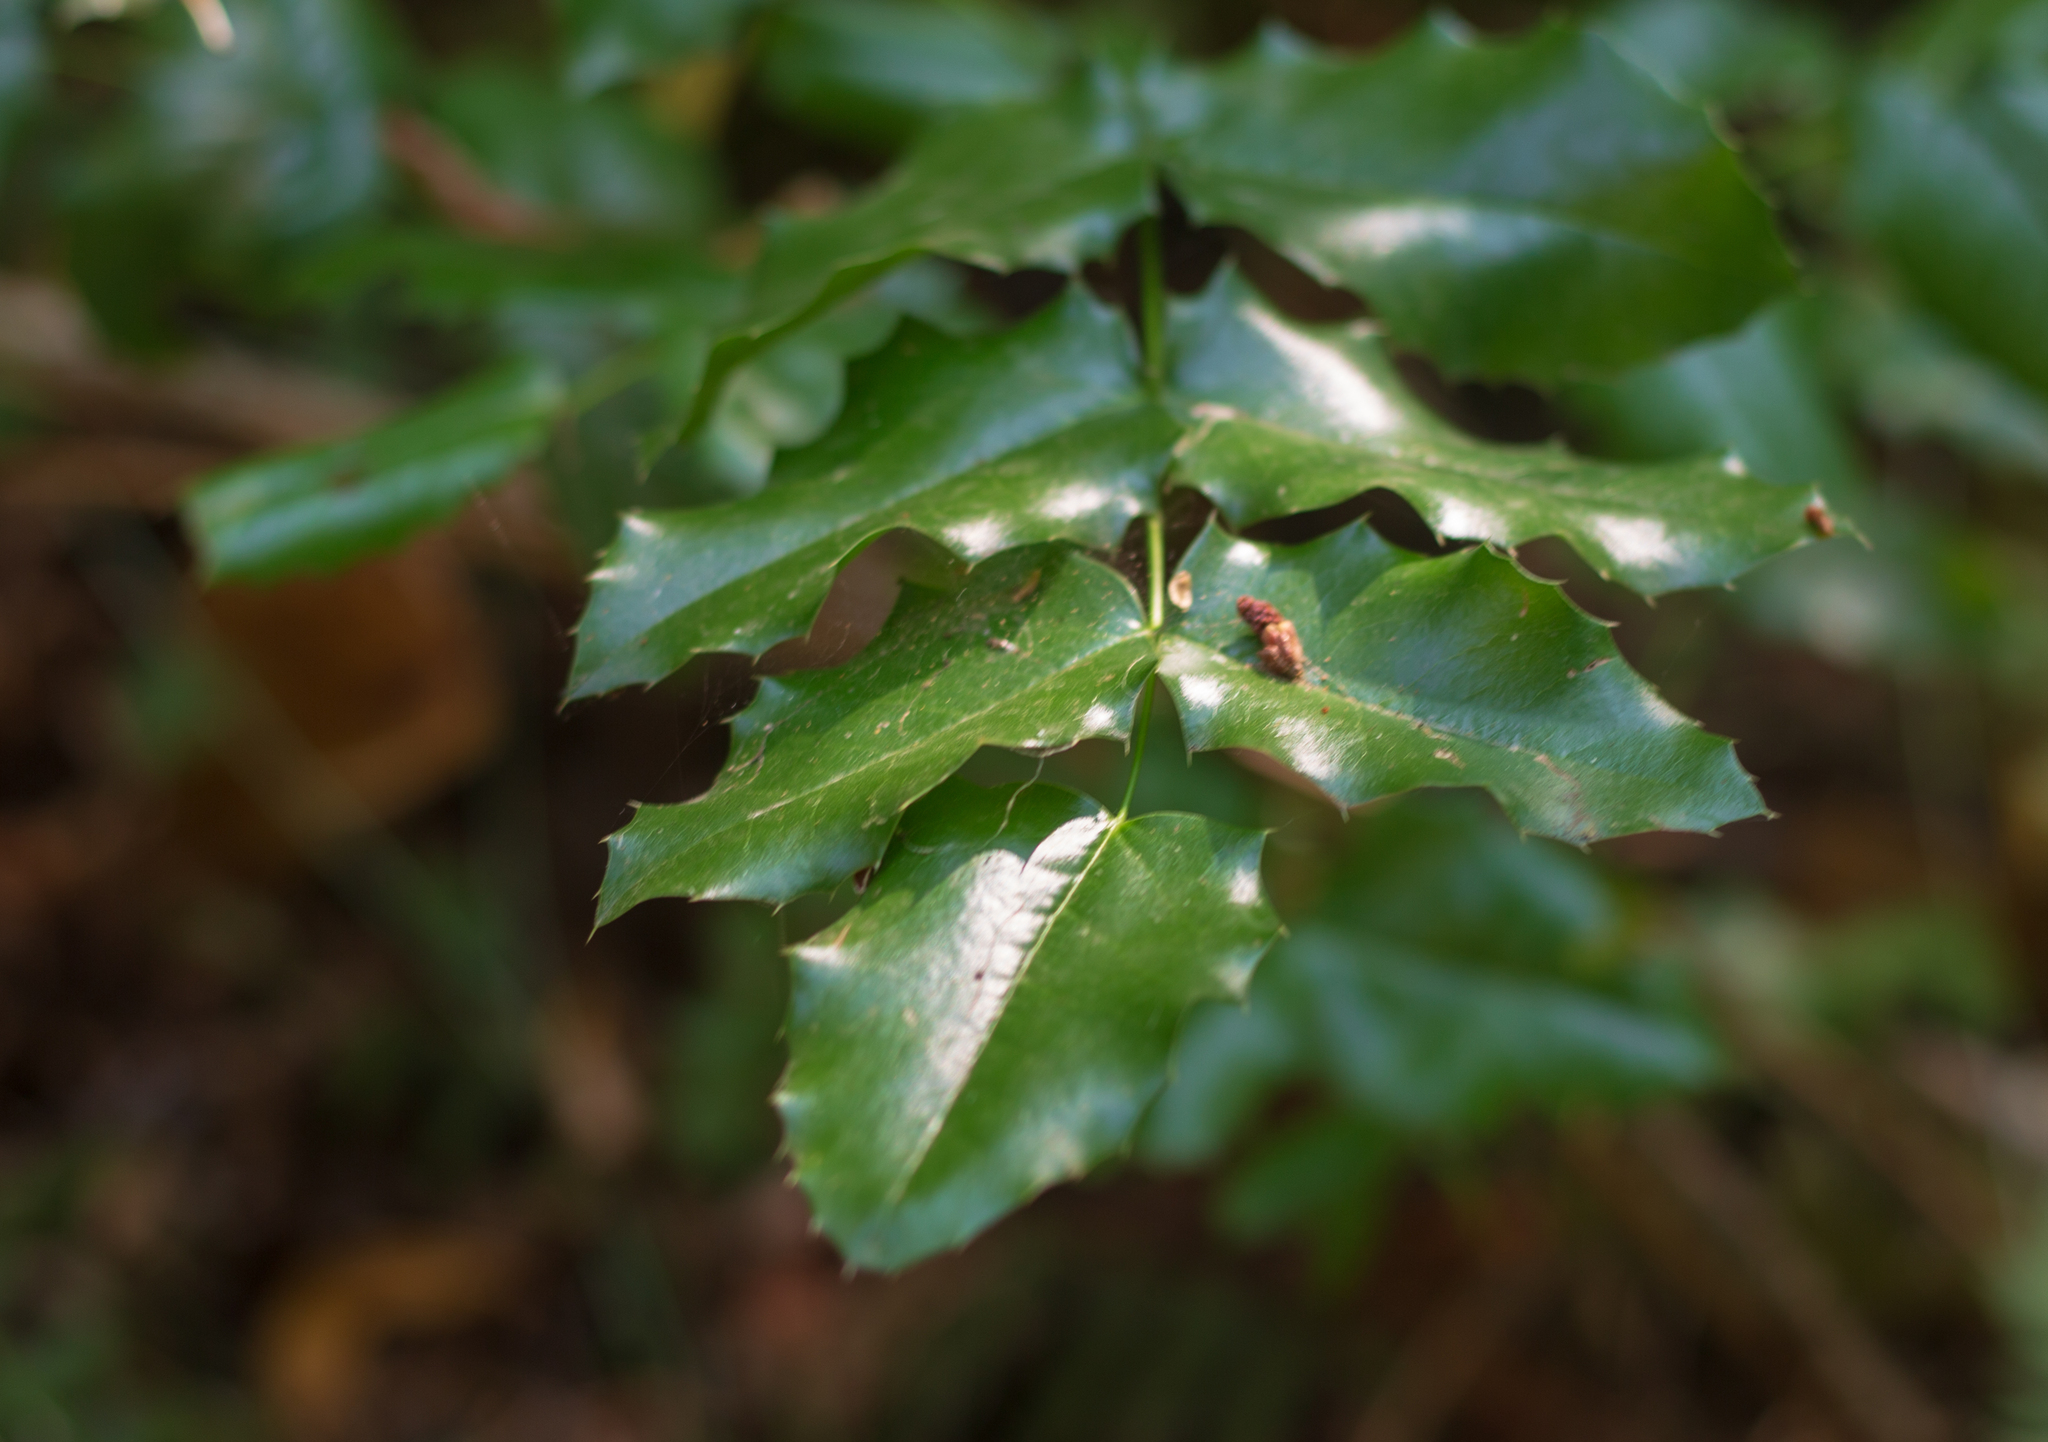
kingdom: Plantae
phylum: Tracheophyta
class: Magnoliopsida
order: Ranunculales
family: Berberidaceae
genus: Mahonia
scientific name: Mahonia aquifolium
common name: Oregon-grape
